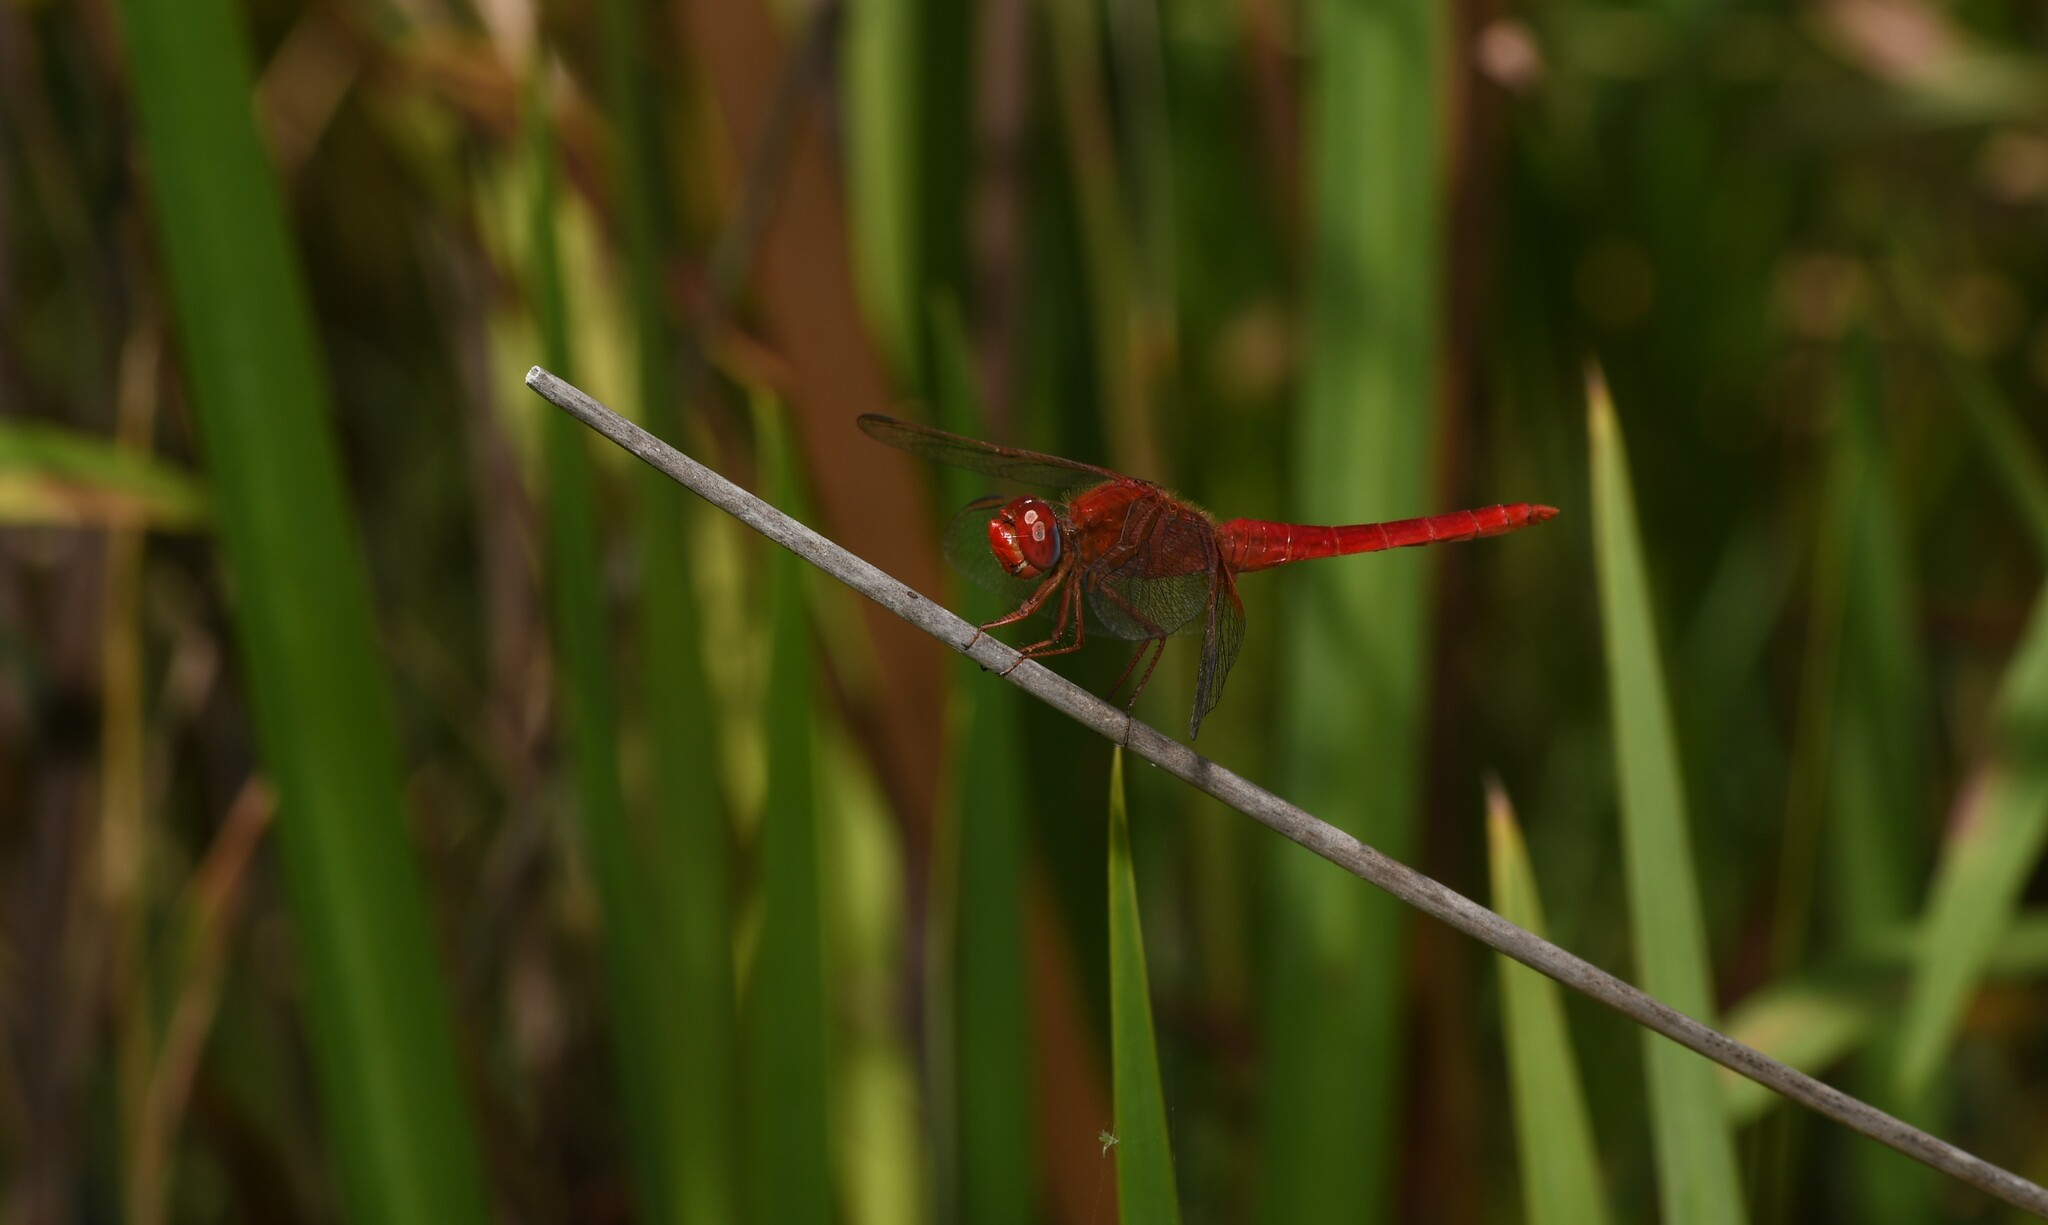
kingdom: Animalia
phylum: Arthropoda
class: Insecta
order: Odonata
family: Libellulidae
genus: Crocothemis
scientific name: Crocothemis erythraea
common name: Scarlet dragonfly
